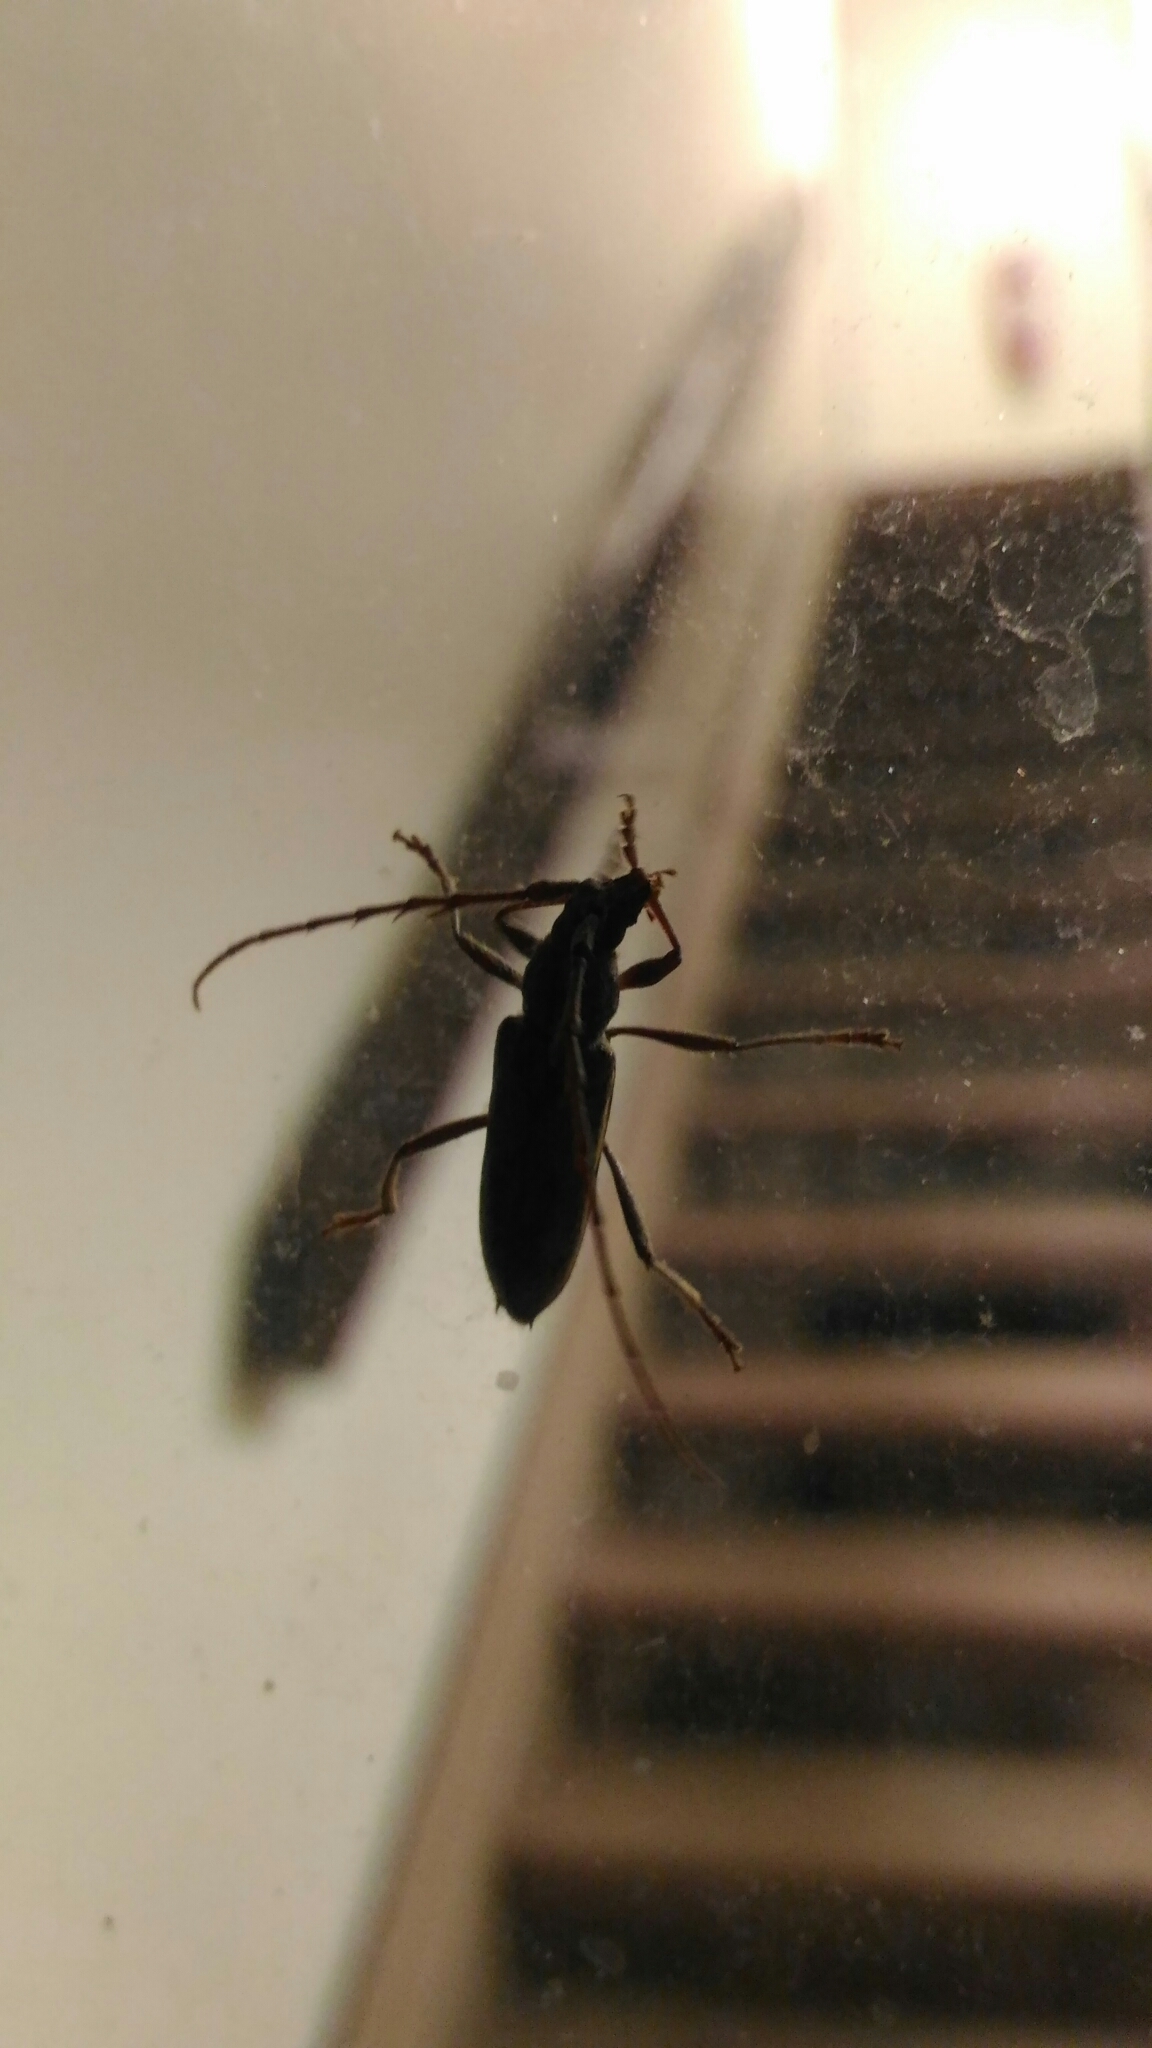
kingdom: Animalia
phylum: Arthropoda
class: Insecta
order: Coleoptera
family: Cerambycidae
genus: Elaphidion
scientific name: Elaphidion mucronatum
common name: Spined oak borer
